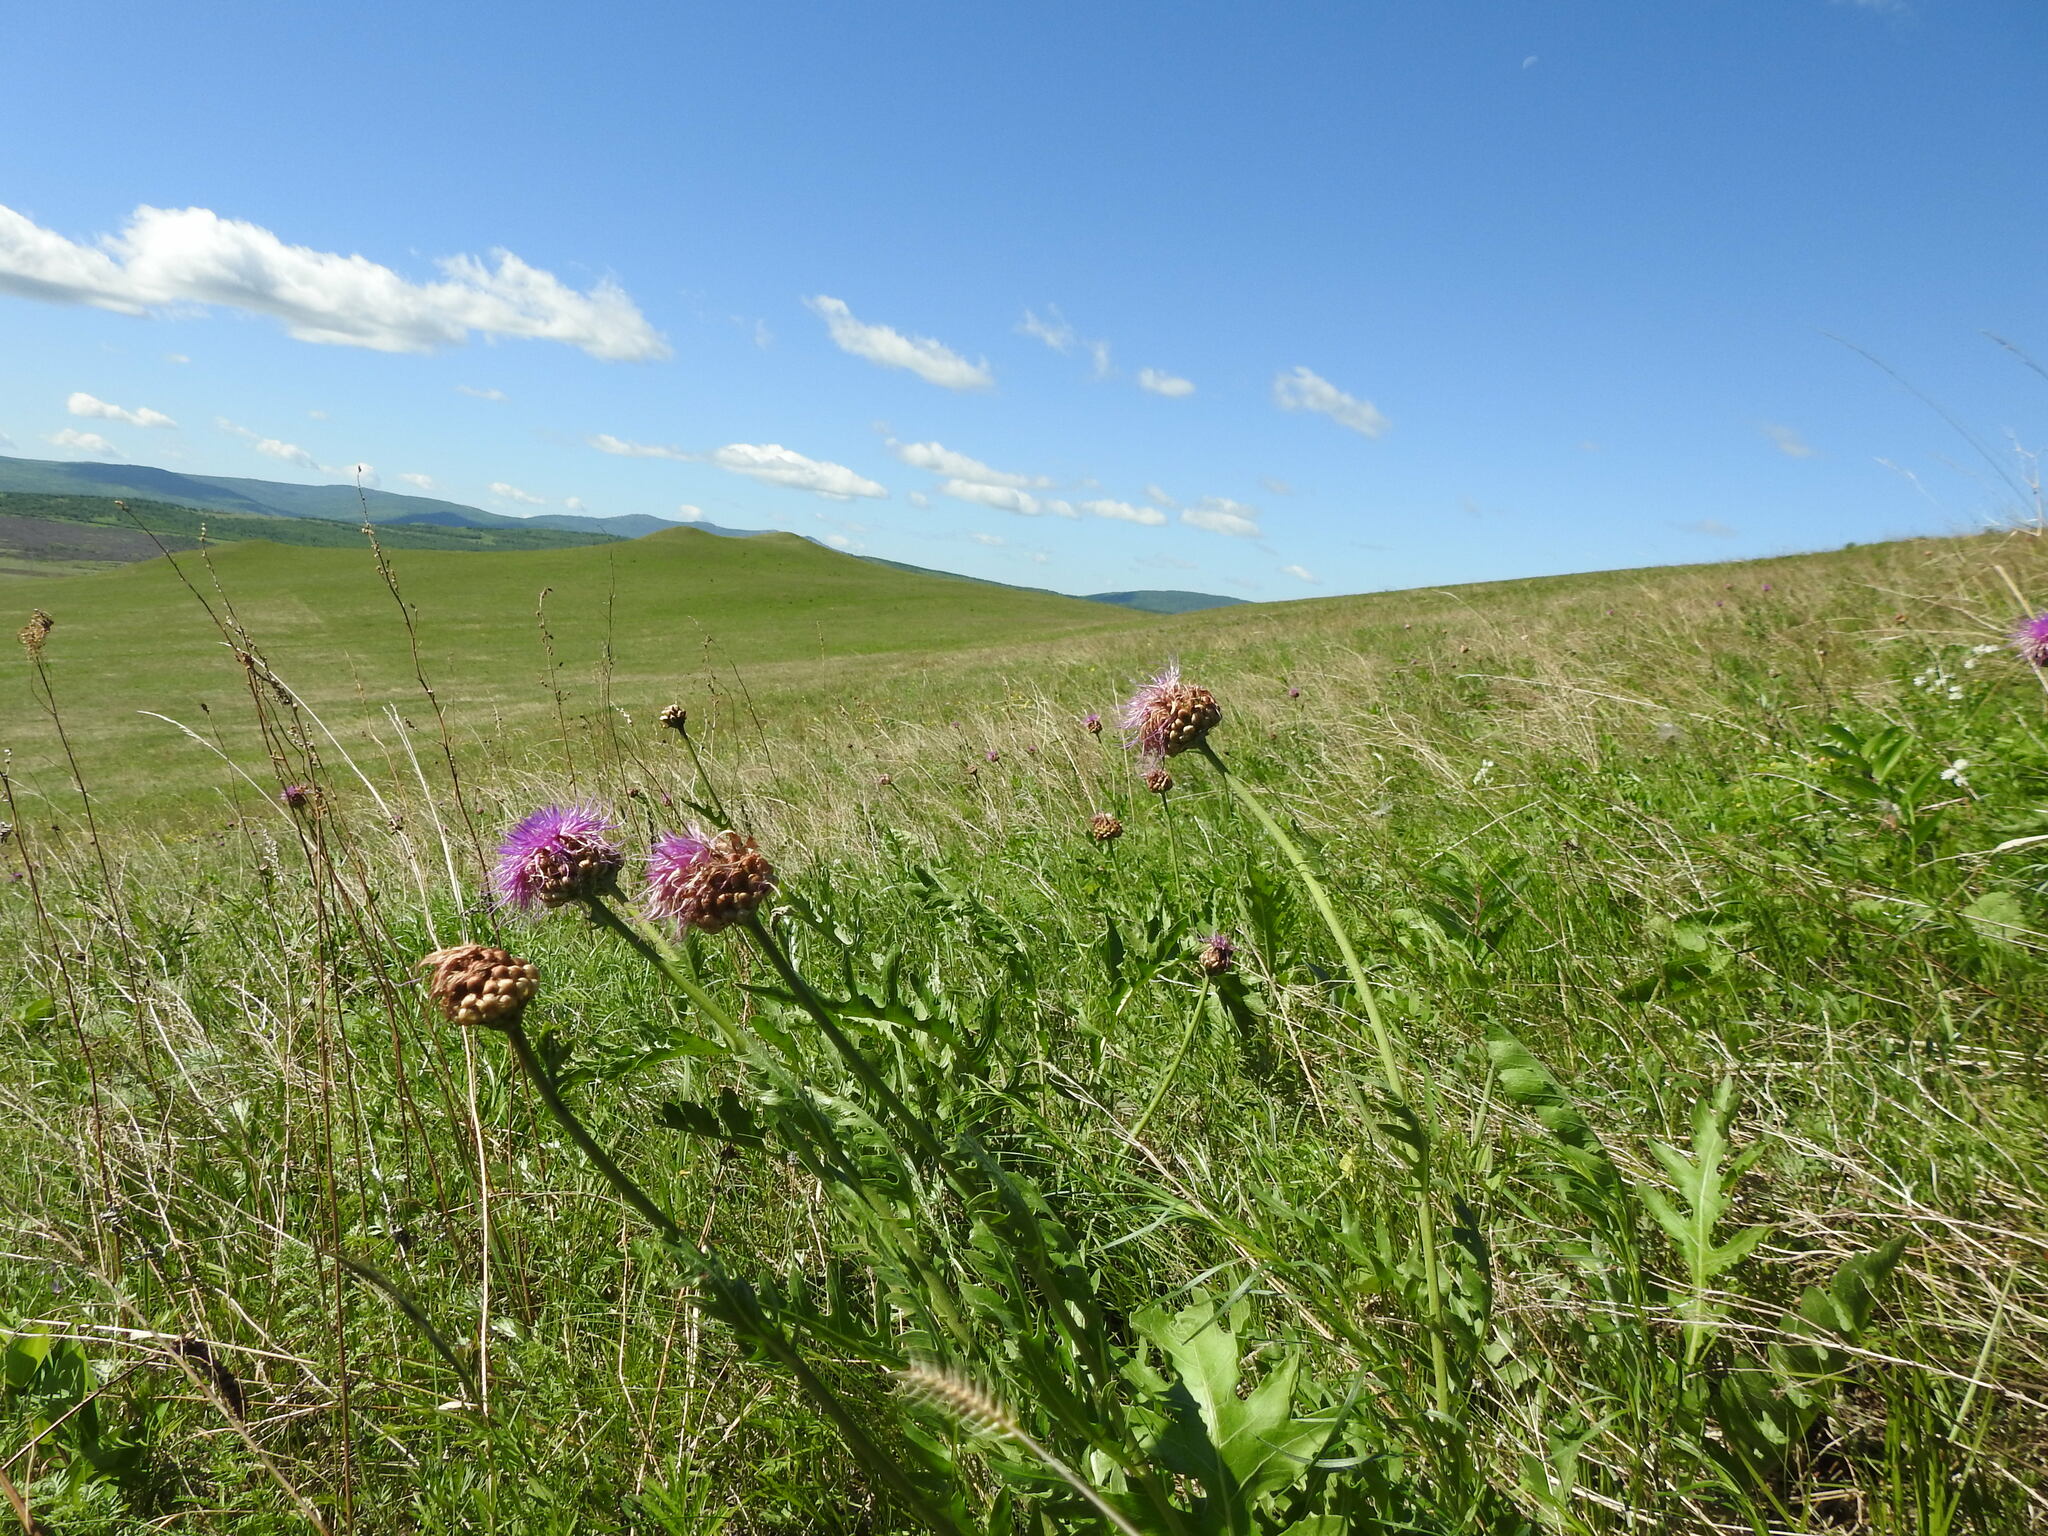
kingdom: Plantae
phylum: Tracheophyta
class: Magnoliopsida
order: Asterales
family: Asteraceae
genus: Leuzea
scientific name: Leuzea uniflora
